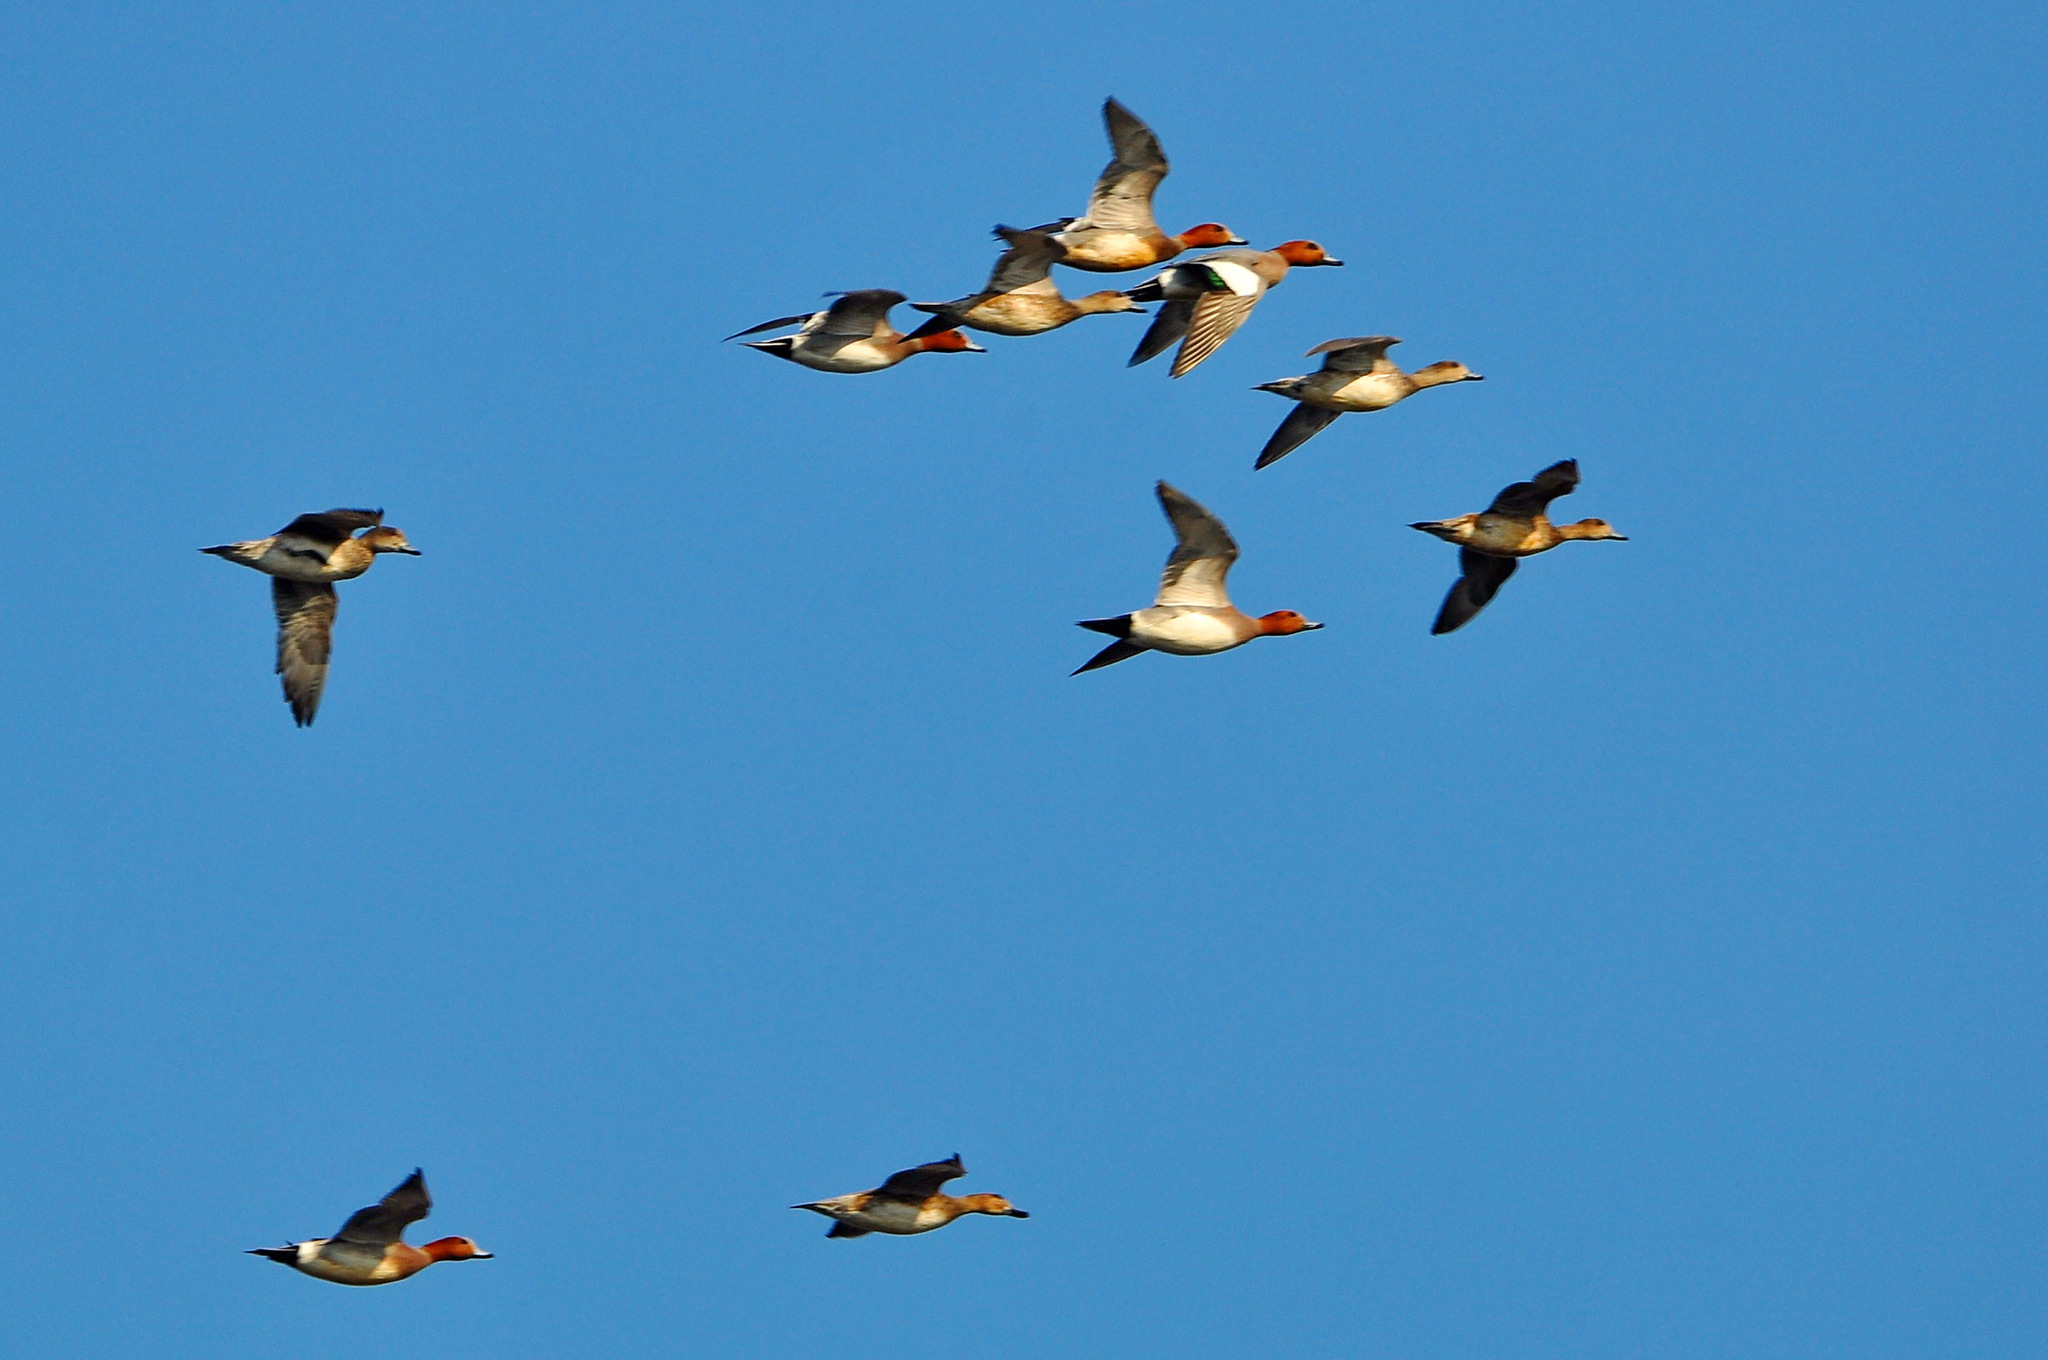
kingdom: Animalia
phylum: Chordata
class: Aves
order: Anseriformes
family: Anatidae
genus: Mareca
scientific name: Mareca penelope
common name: Eurasian wigeon
